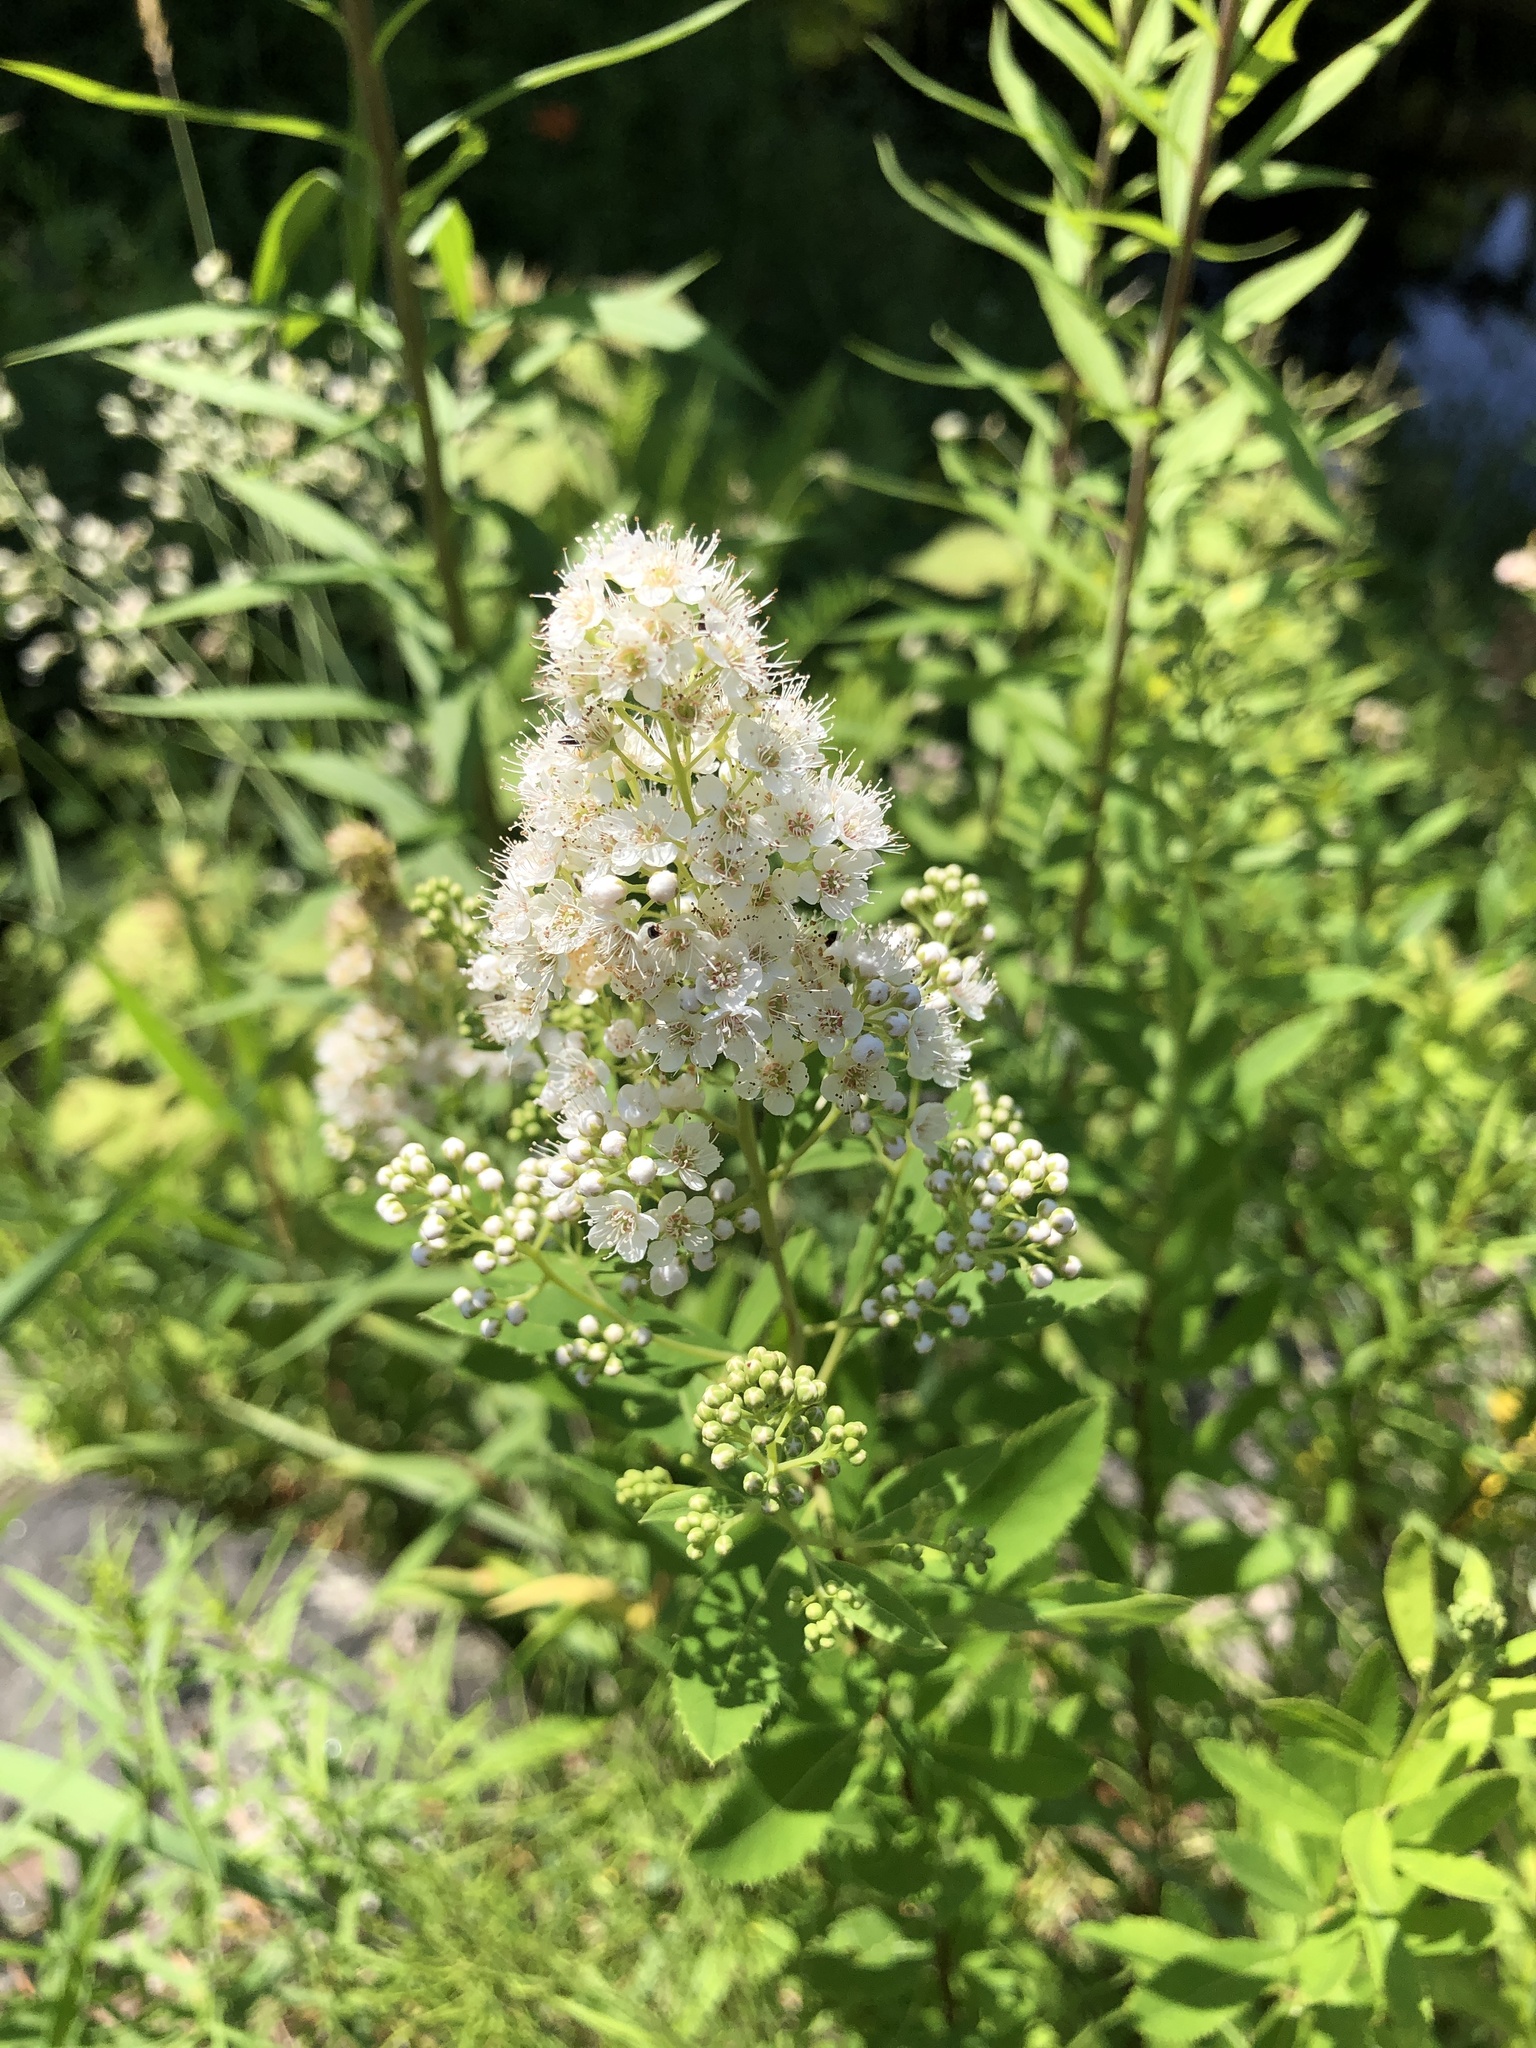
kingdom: Plantae
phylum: Tracheophyta
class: Magnoliopsida
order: Rosales
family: Rosaceae
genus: Spiraea
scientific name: Spiraea alba
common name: Pale bridewort
